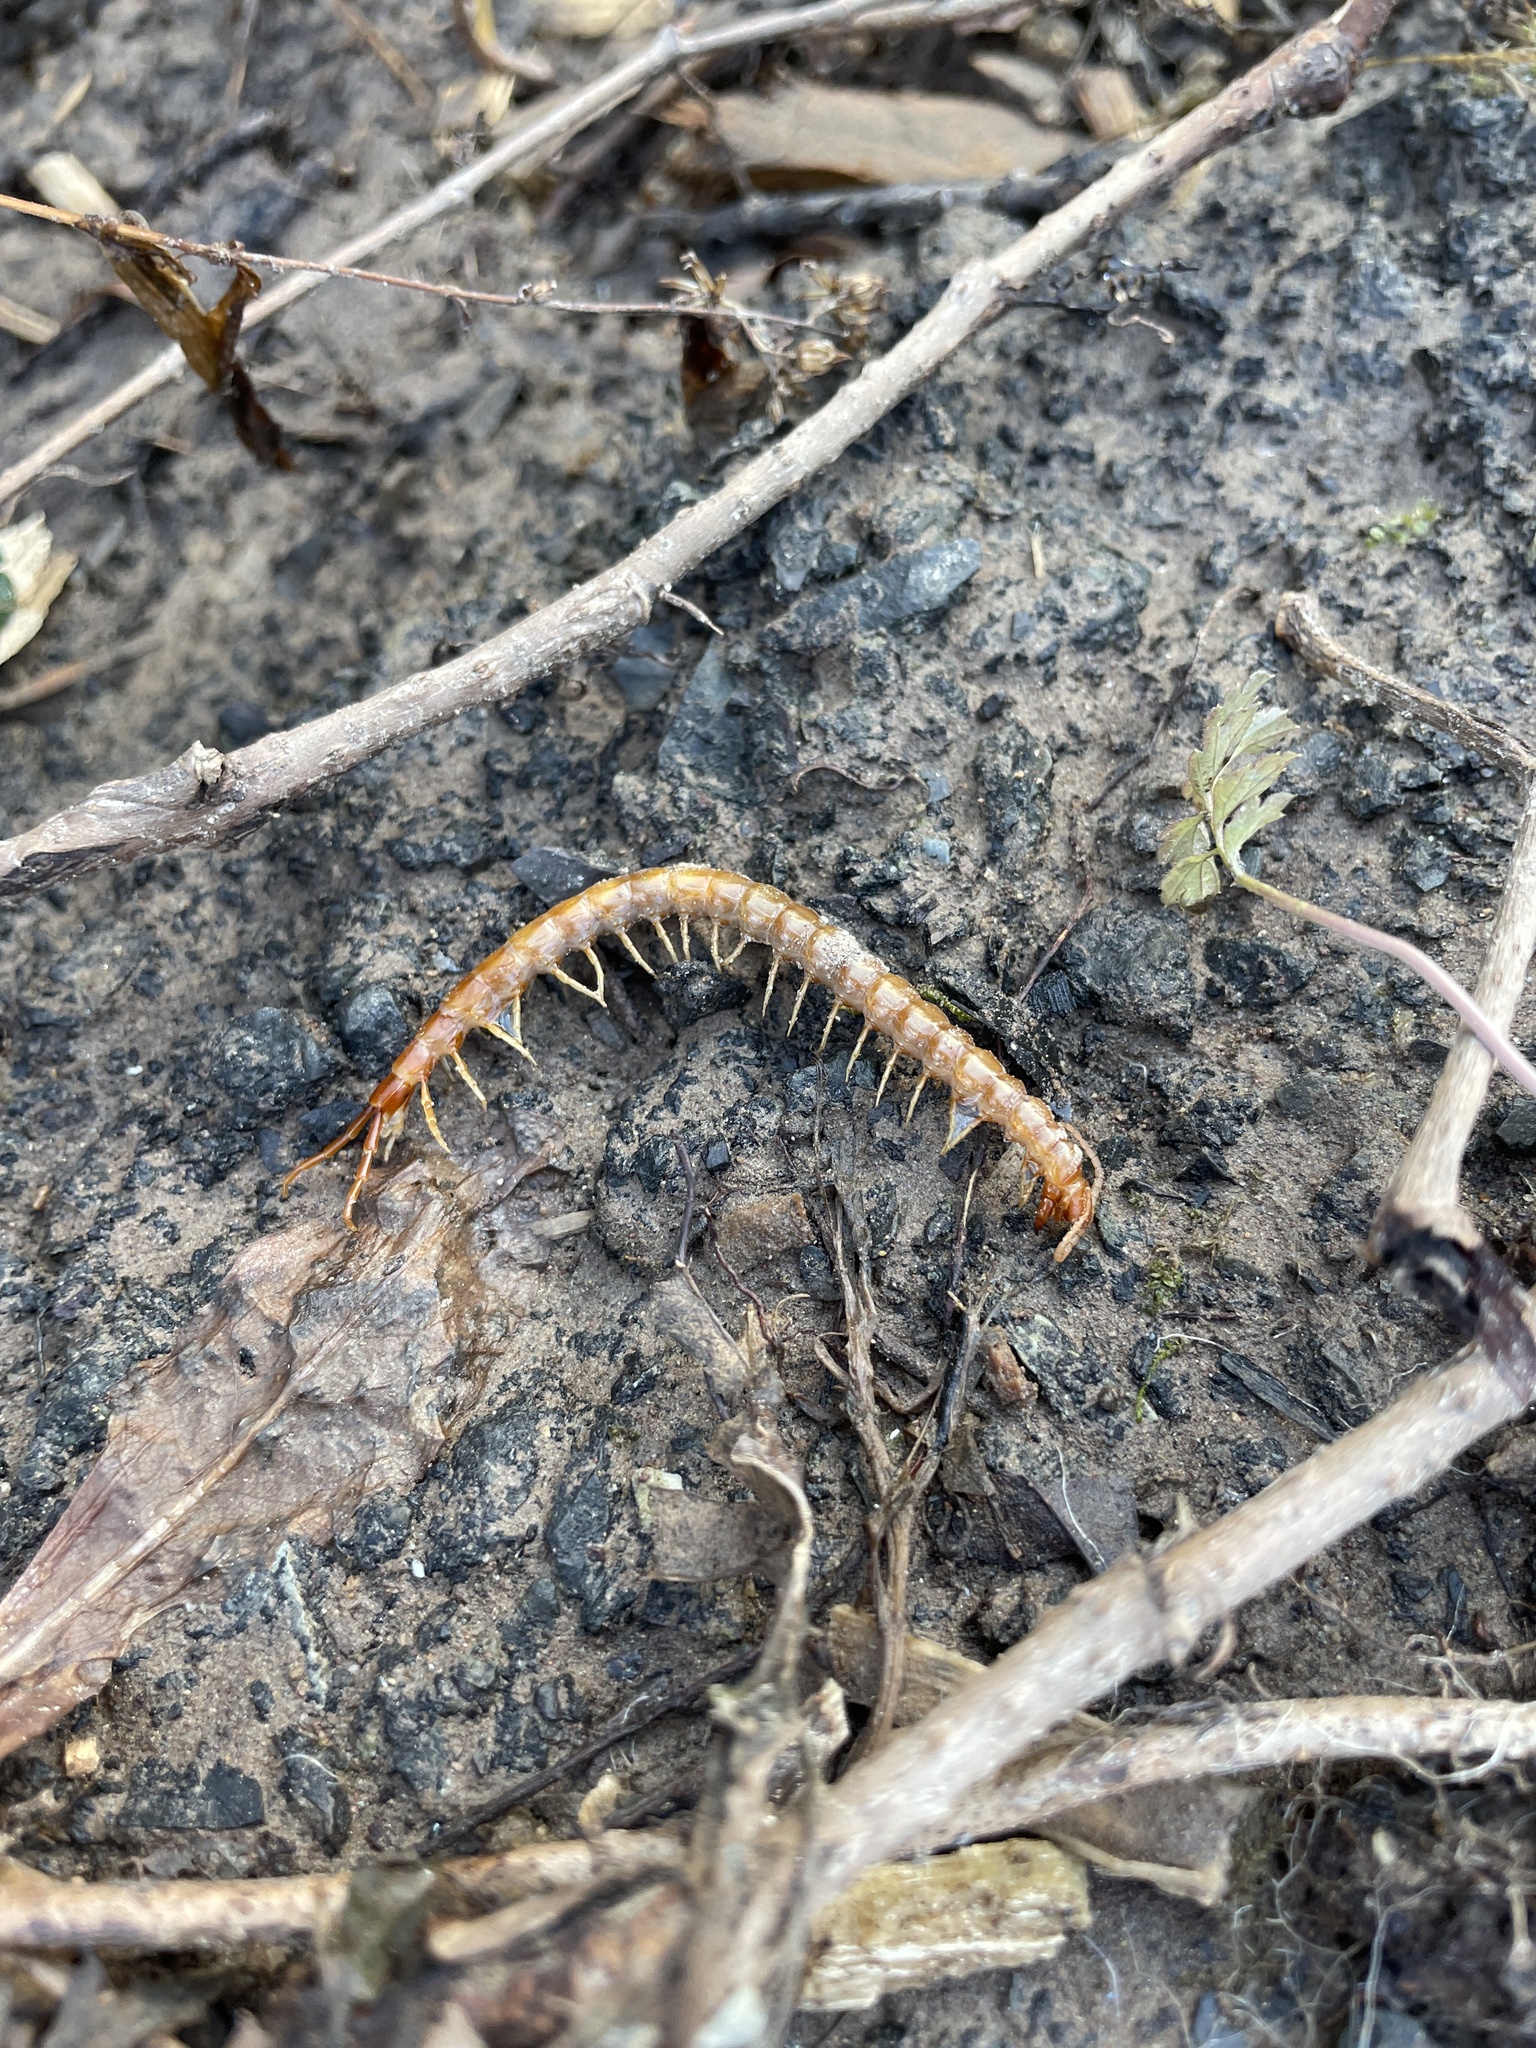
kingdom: Animalia
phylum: Arthropoda
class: Chilopoda
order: Scolopendromorpha
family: Scolopocryptopidae
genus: Scolopocryptops
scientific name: Scolopocryptops peregrinator
